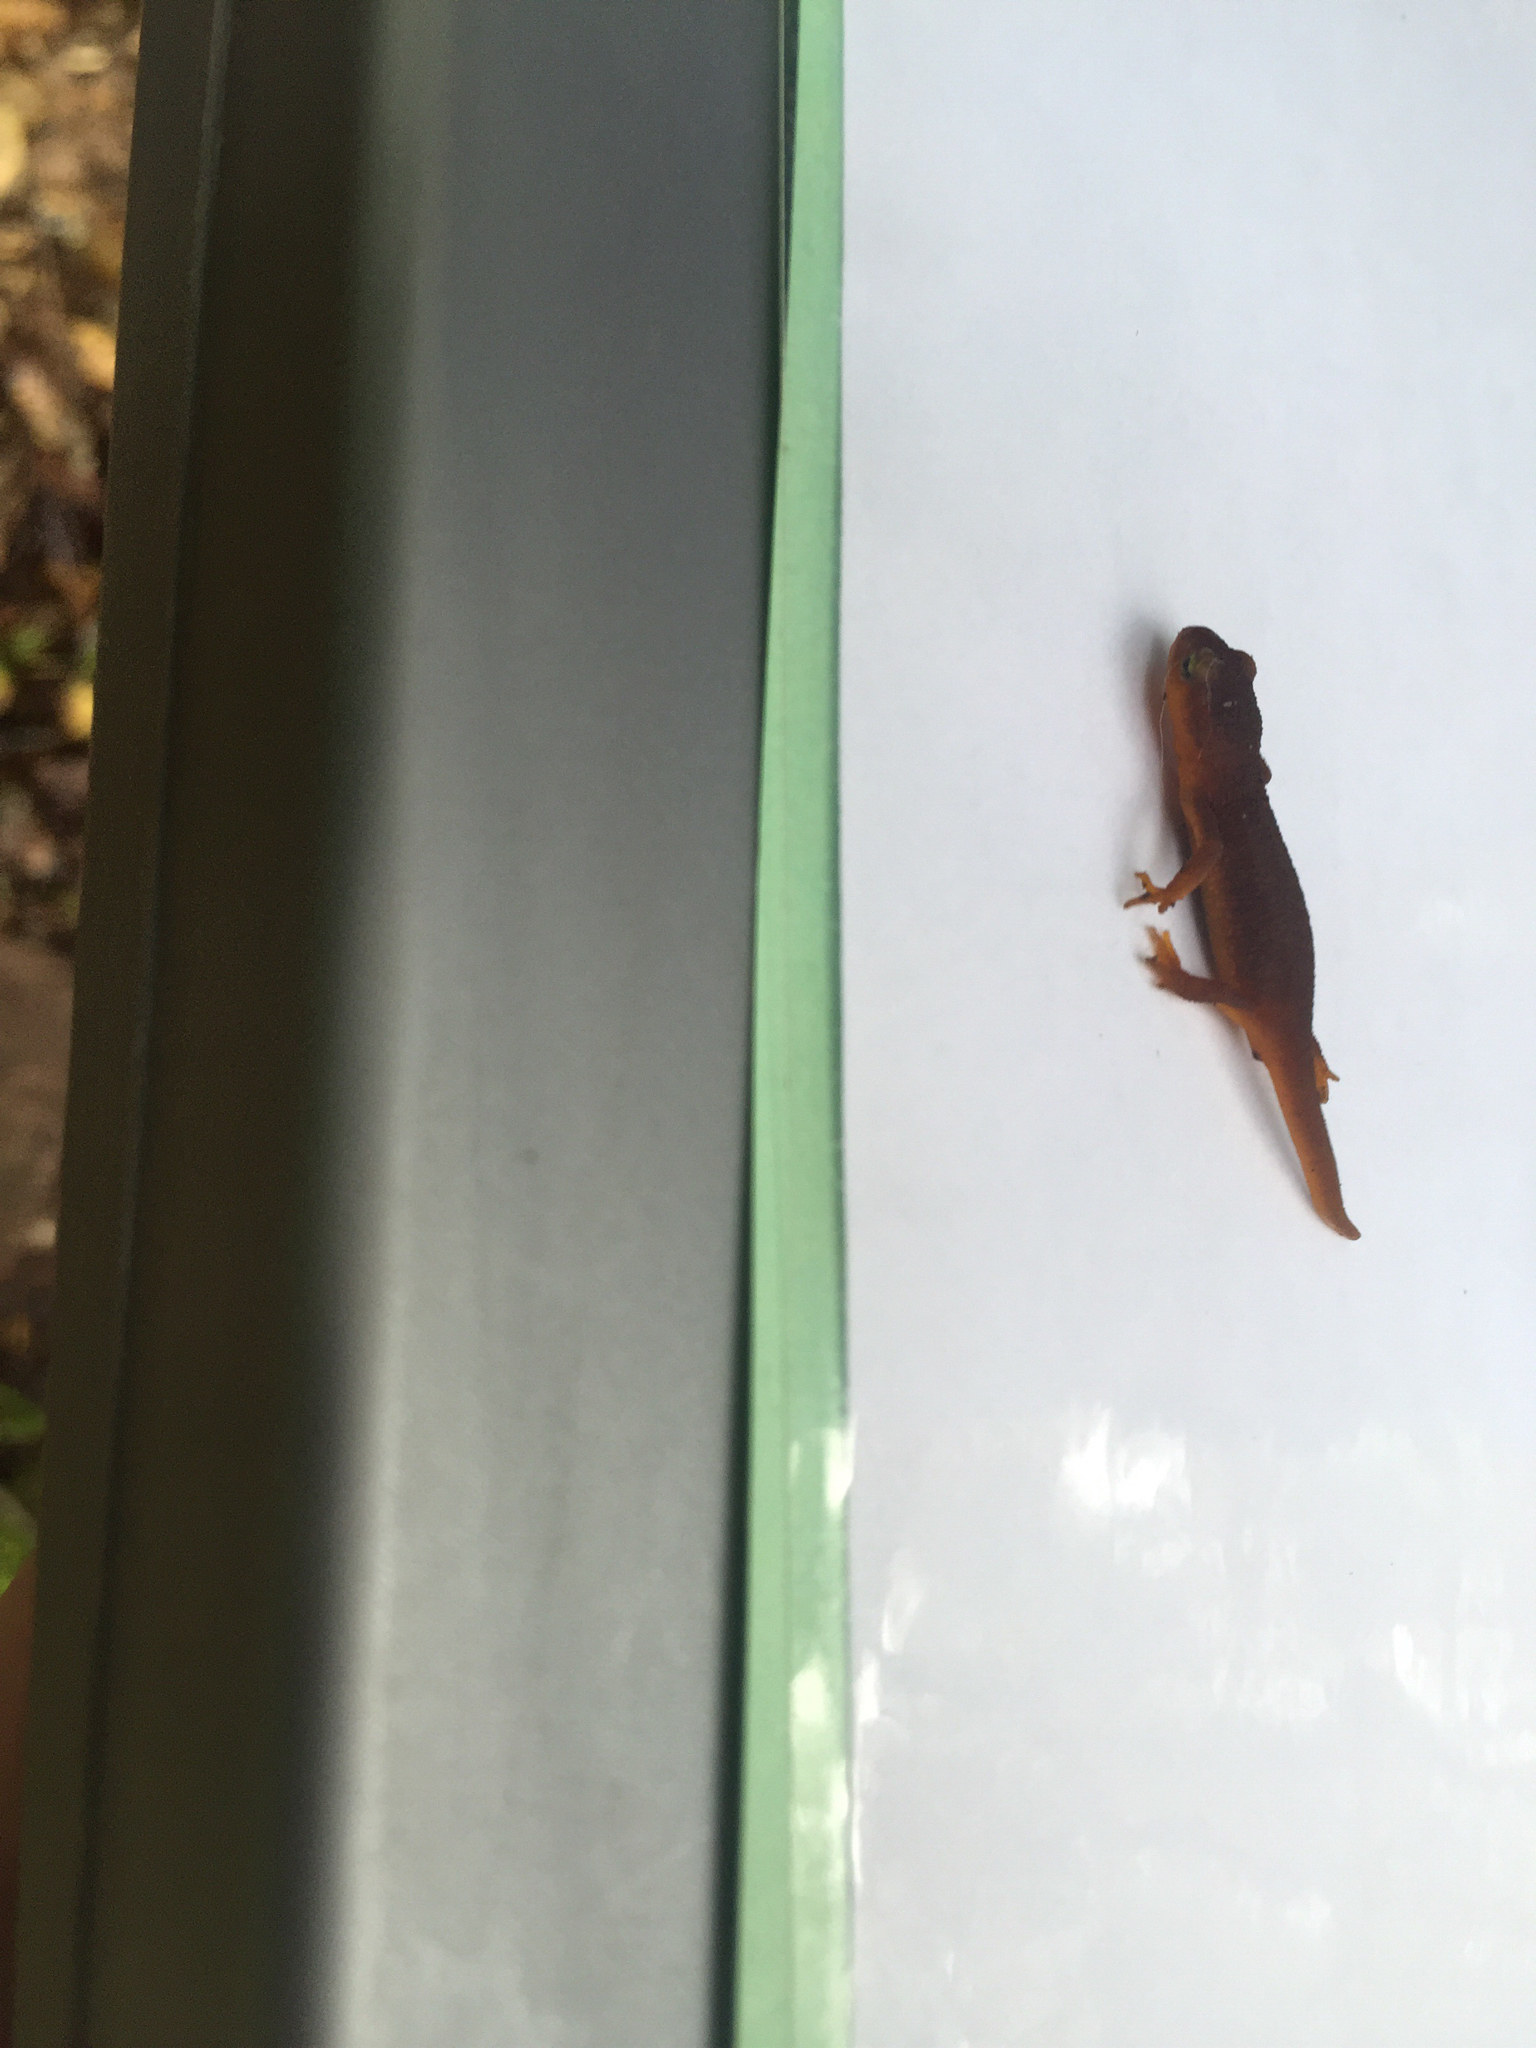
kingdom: Animalia
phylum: Chordata
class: Amphibia
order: Caudata
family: Salamandridae
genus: Taricha
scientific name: Taricha torosa
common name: California newt
